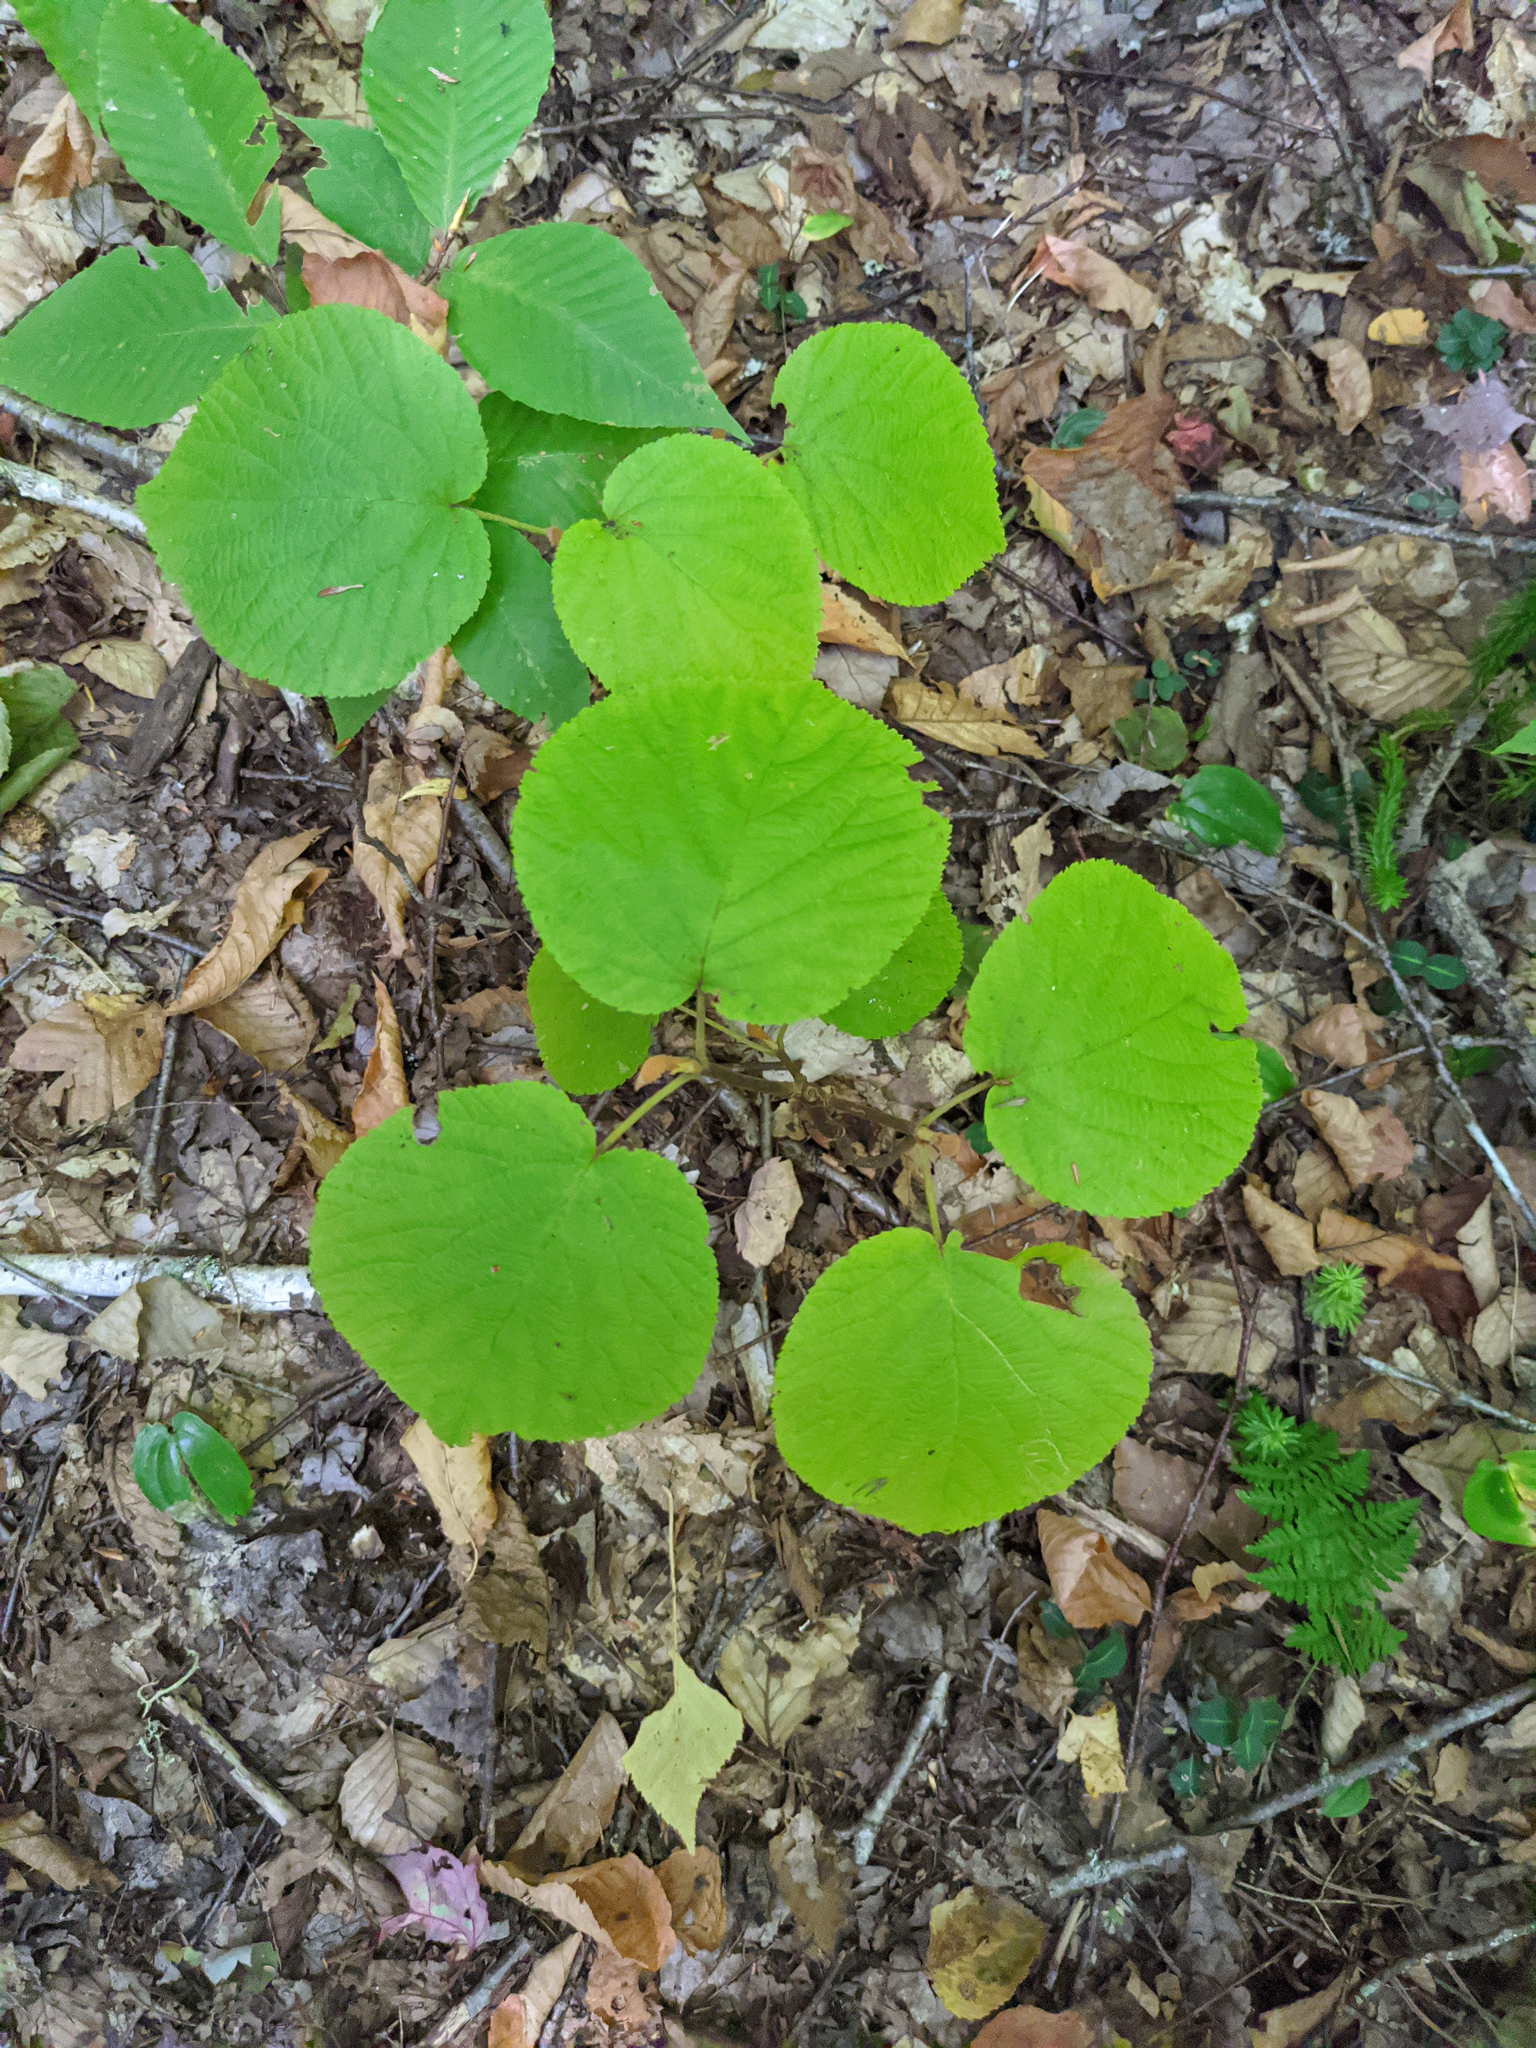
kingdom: Plantae
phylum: Tracheophyta
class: Magnoliopsida
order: Dipsacales
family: Viburnaceae
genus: Viburnum
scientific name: Viburnum lantanoides
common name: Hobblebush
